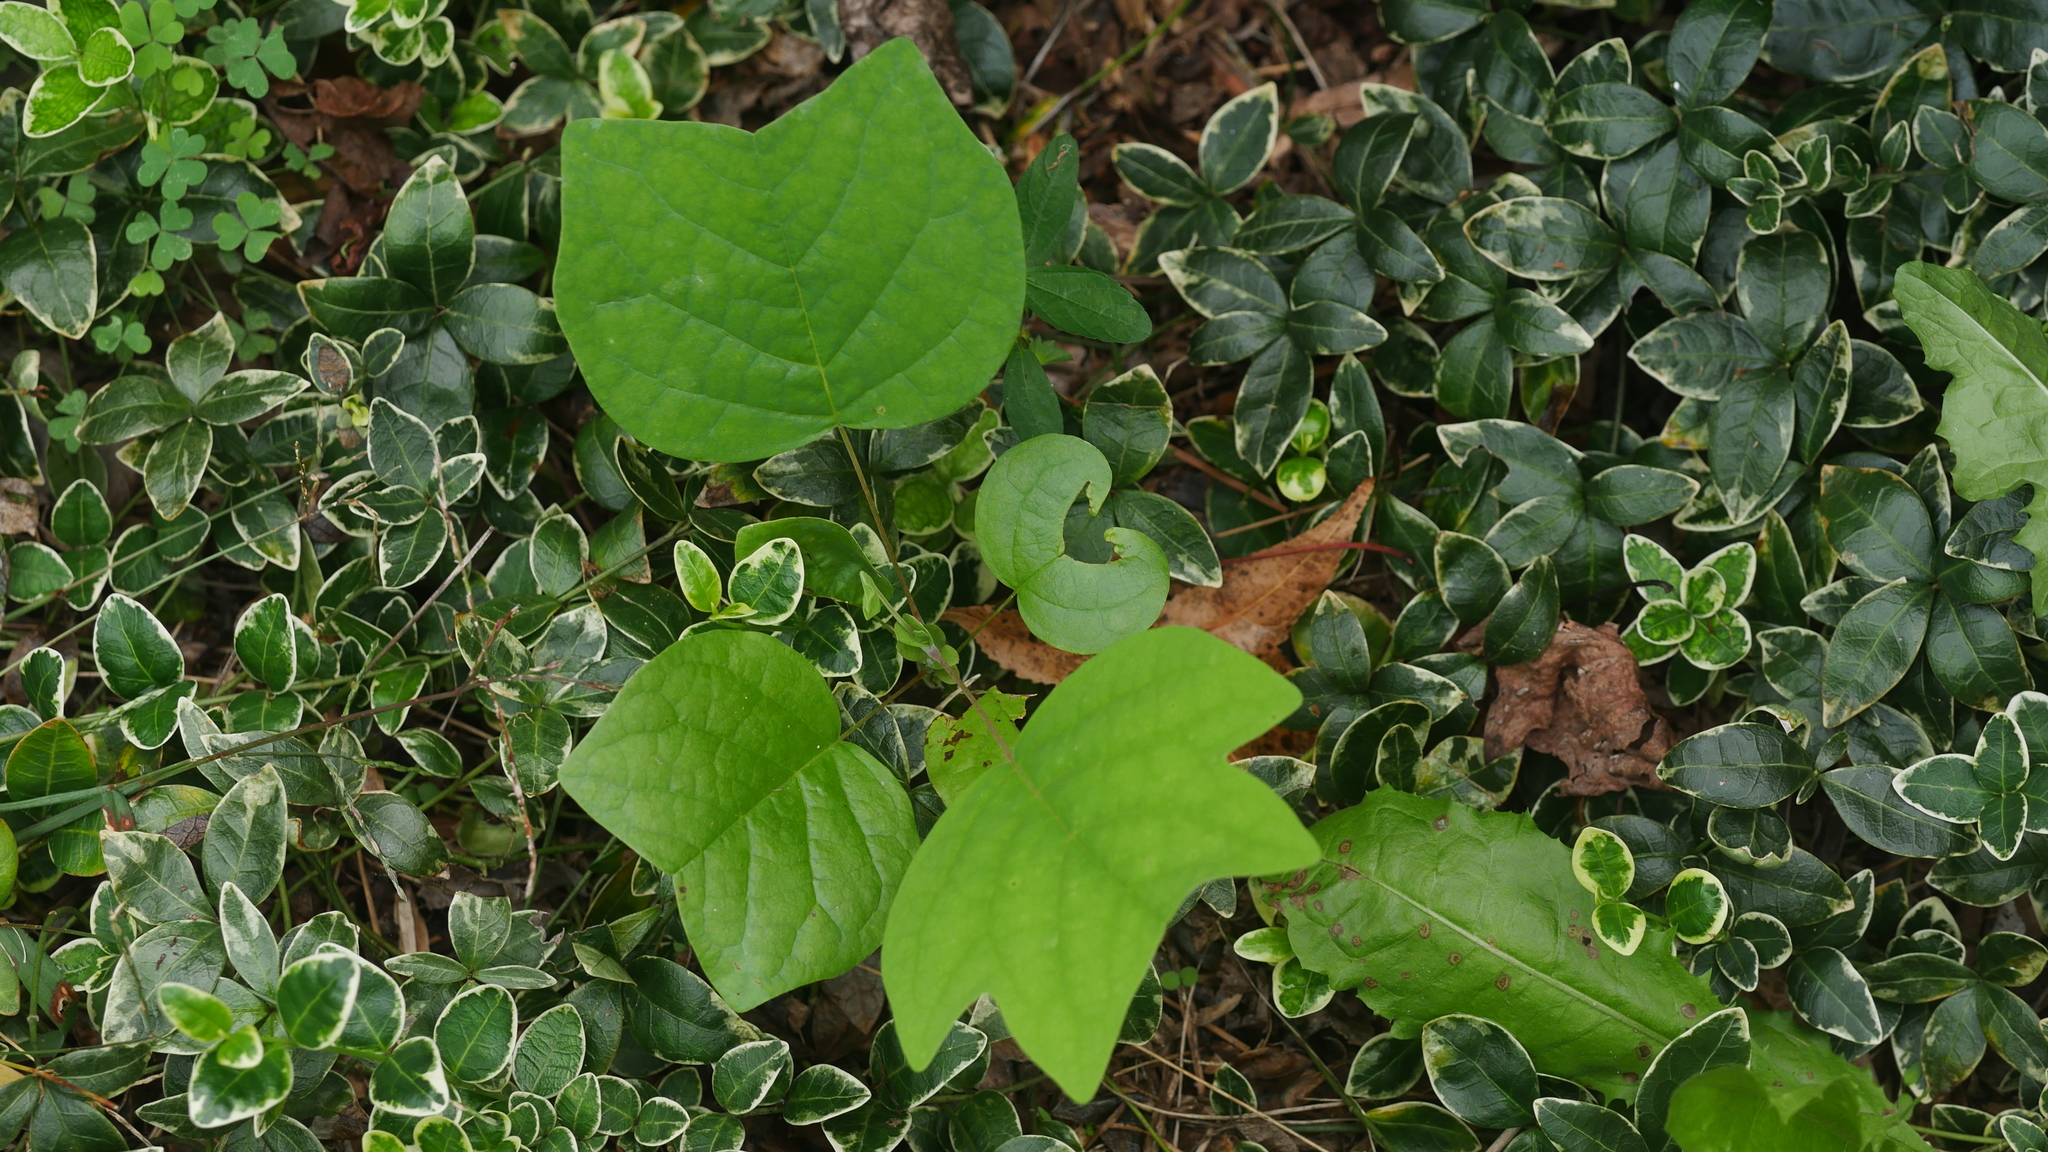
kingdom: Plantae
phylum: Tracheophyta
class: Magnoliopsida
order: Magnoliales
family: Magnoliaceae
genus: Liriodendron
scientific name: Liriodendron tulipifera
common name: Tulip tree
